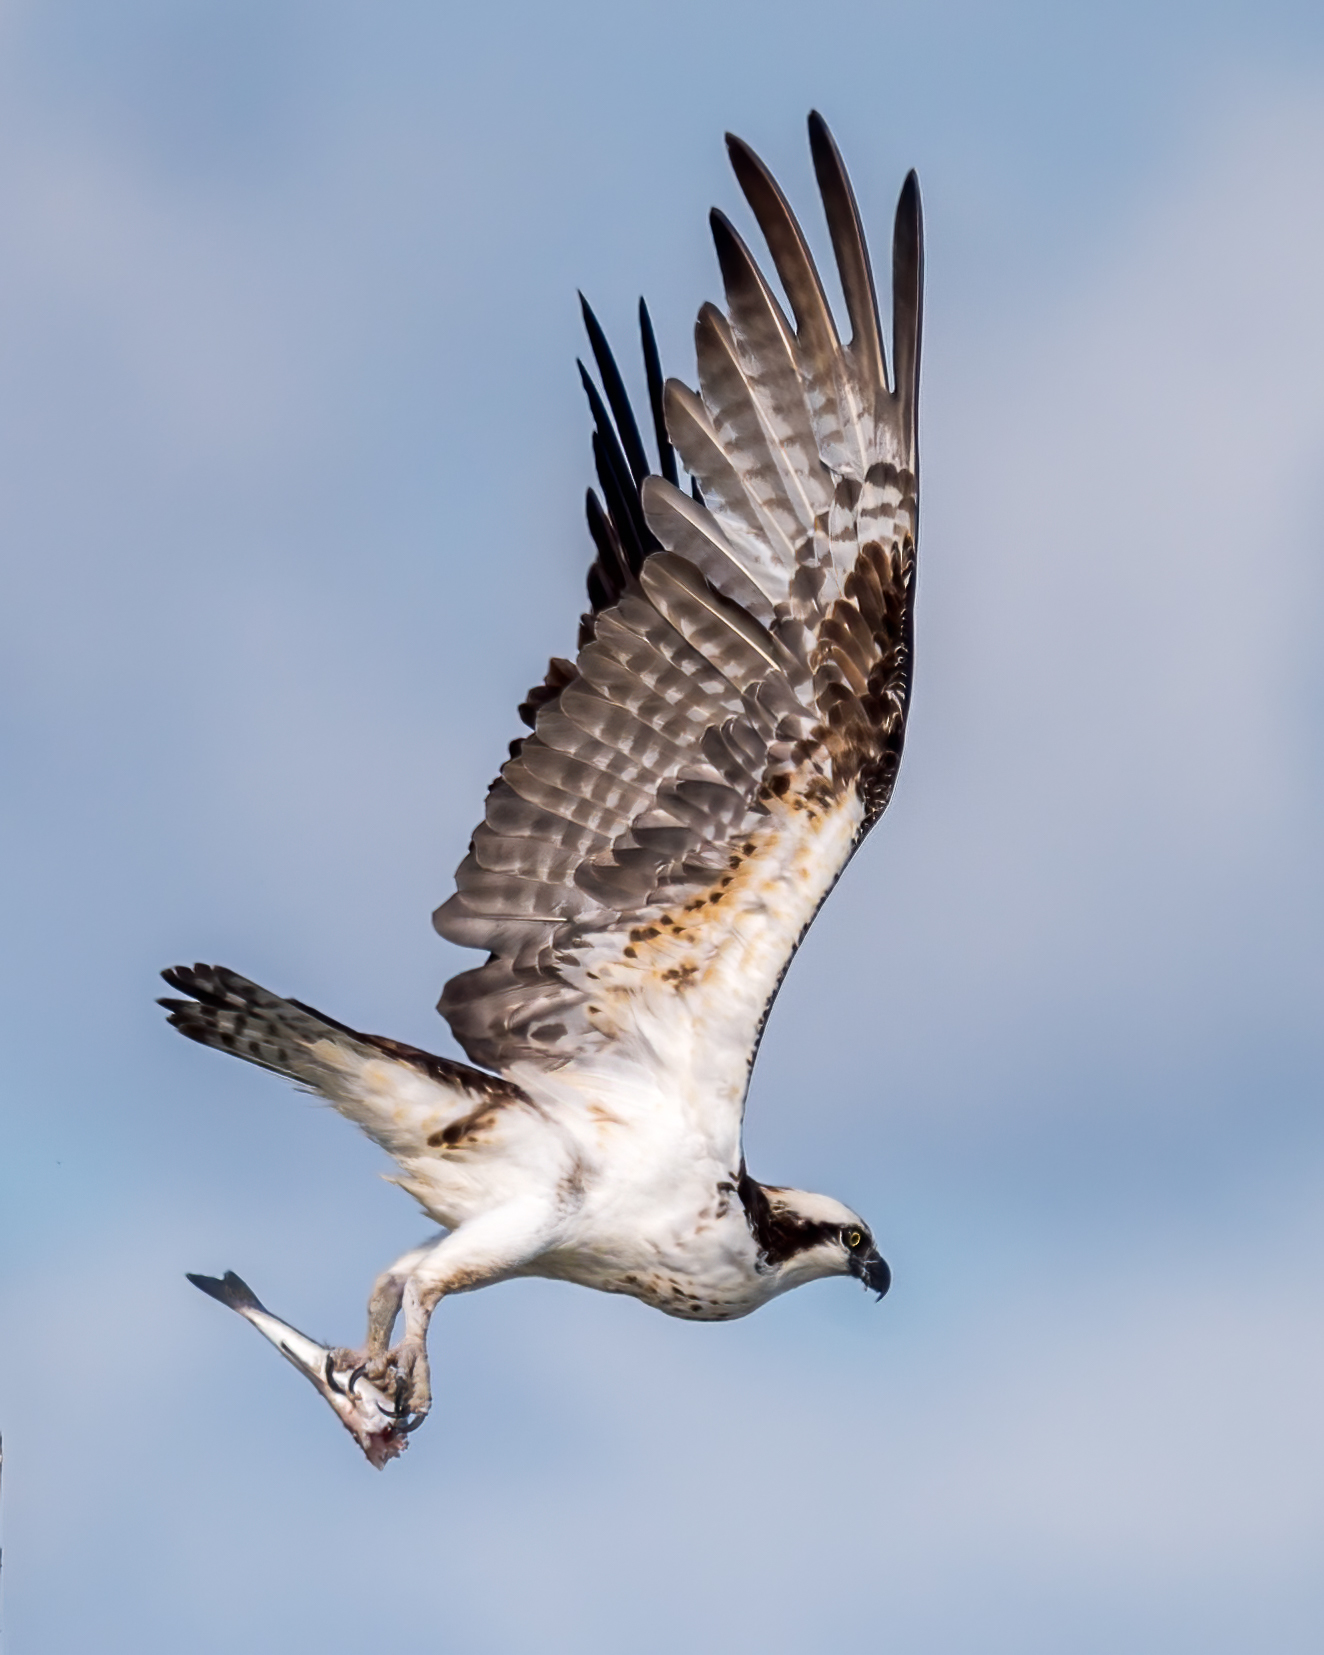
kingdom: Animalia
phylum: Chordata
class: Aves
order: Accipitriformes
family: Pandionidae
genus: Pandion
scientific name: Pandion haliaetus
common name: Osprey
